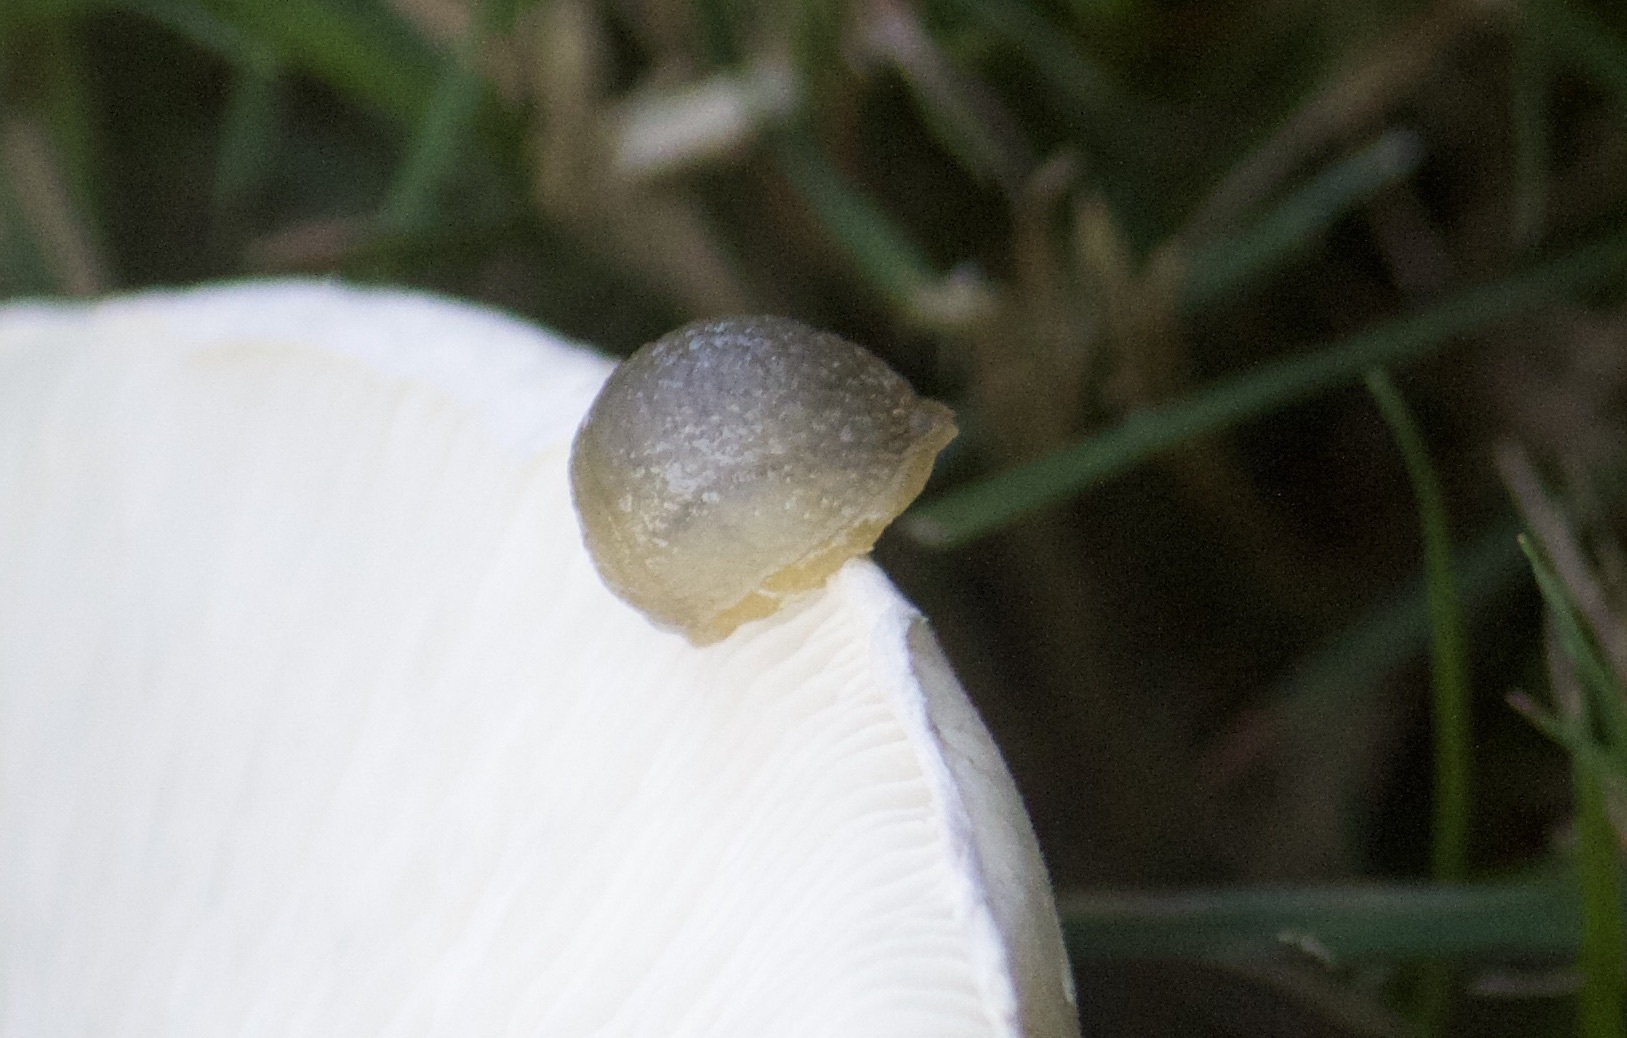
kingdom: Animalia
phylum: Mollusca
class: Gastropoda
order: Stylommatophora
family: Arionidae
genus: Arion
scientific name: Arion intermedius
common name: Hedgehog slug
